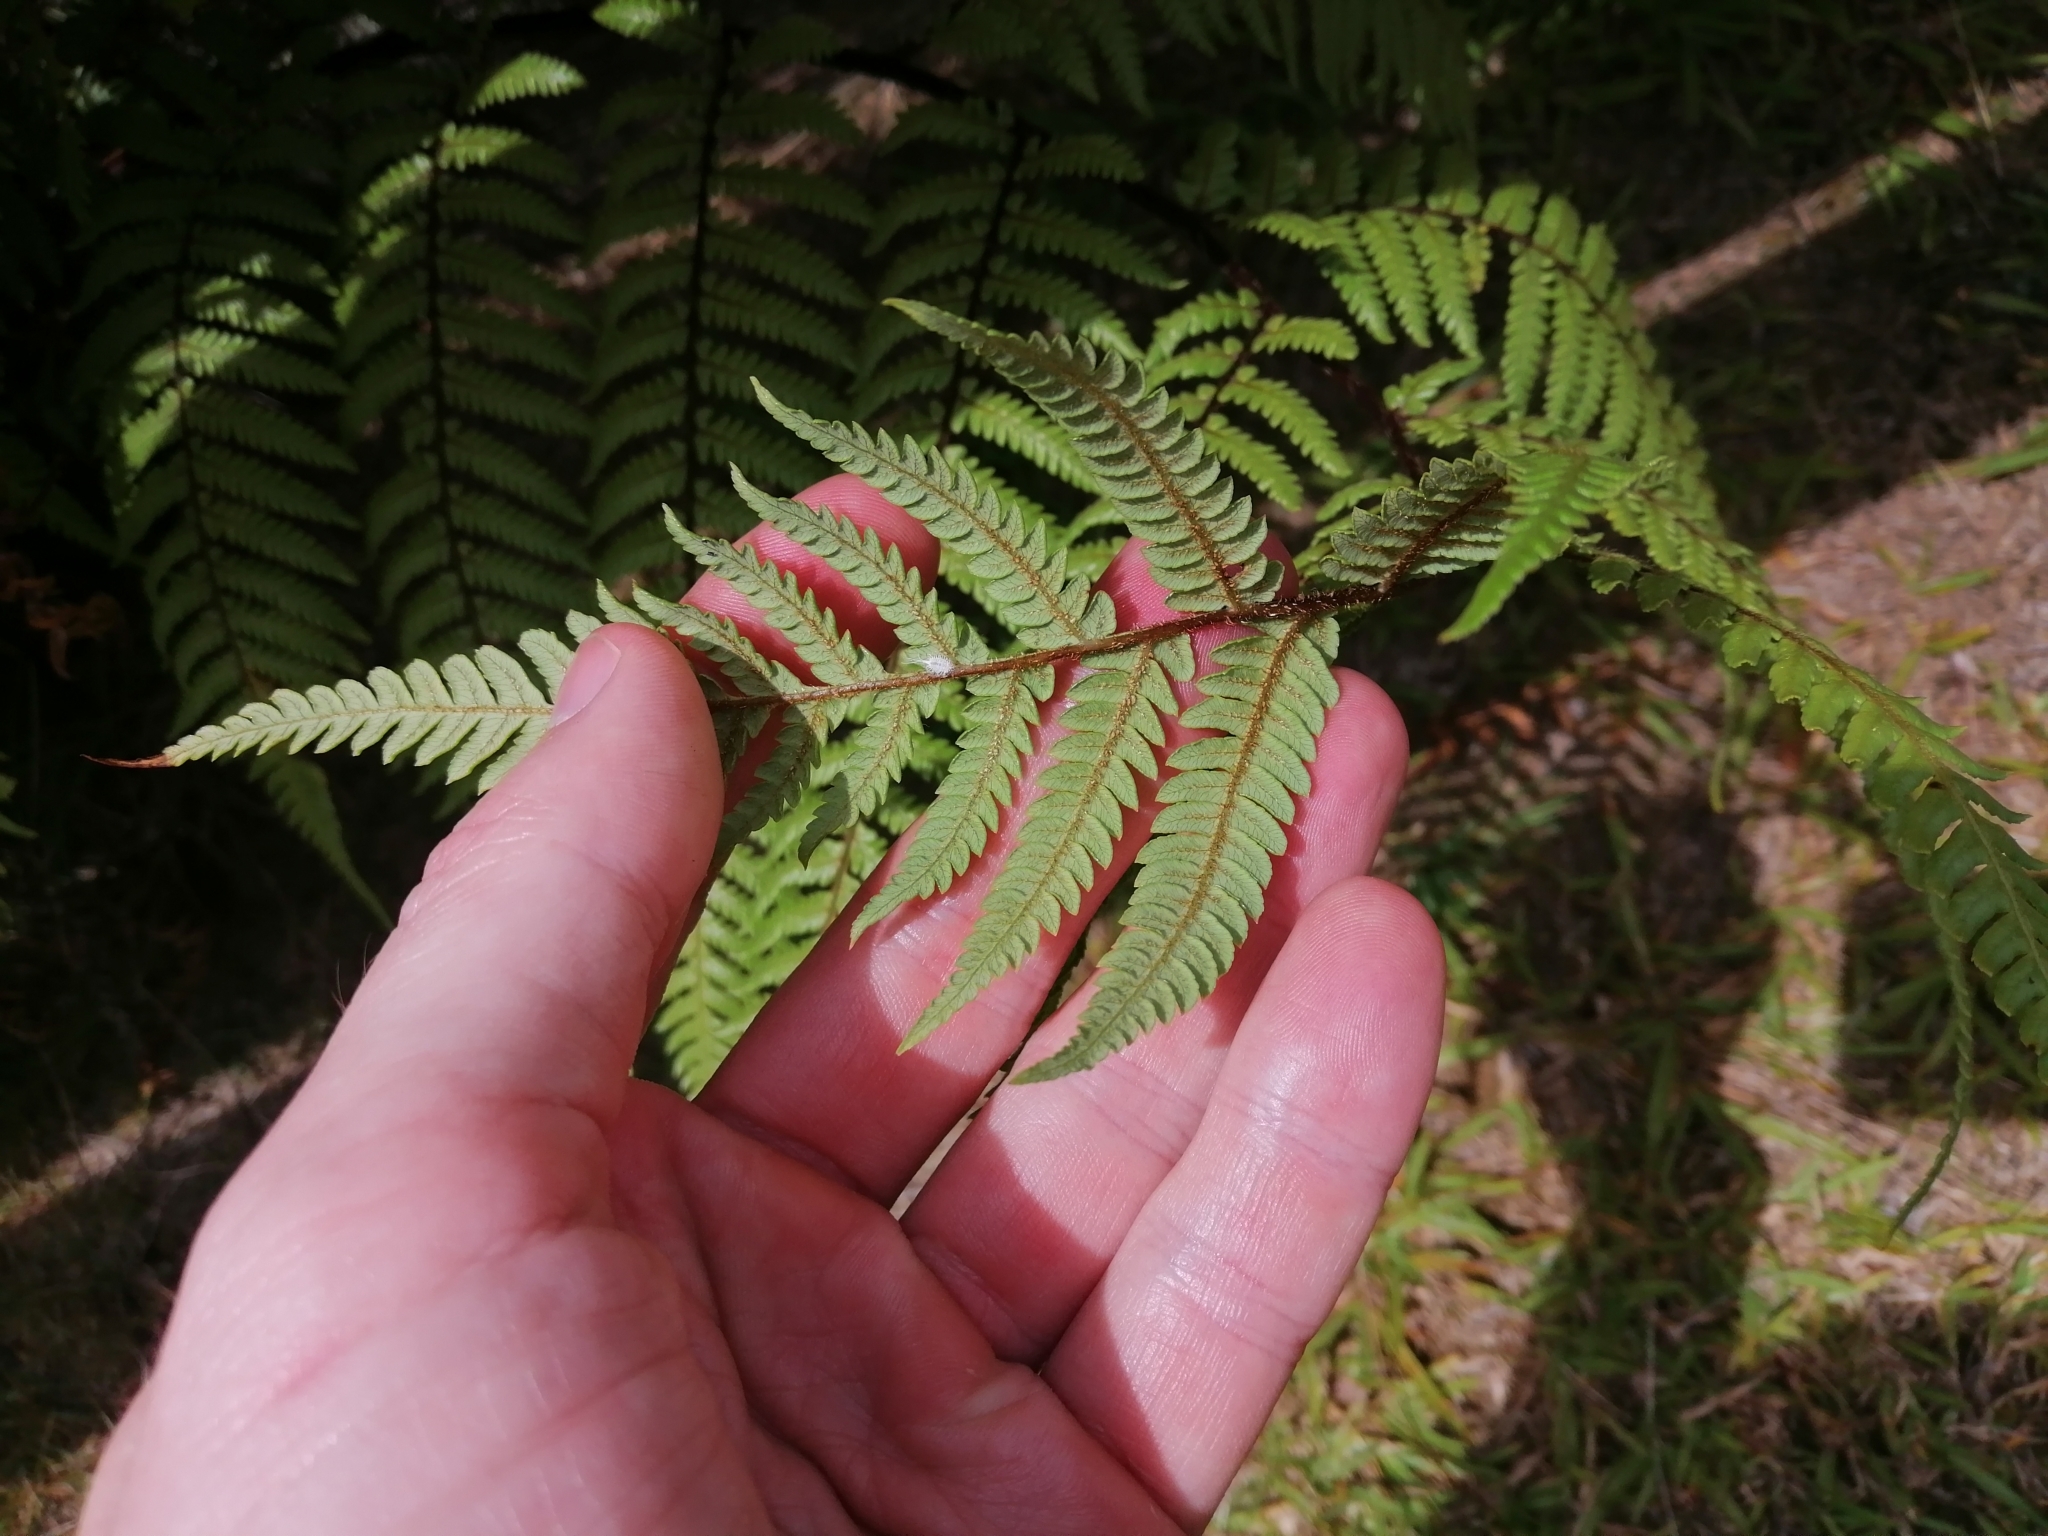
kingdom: Plantae
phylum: Tracheophyta
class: Polypodiopsida
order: Cyatheales
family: Cyatheaceae
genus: Sphaeropteris
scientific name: Sphaeropteris medullaris
